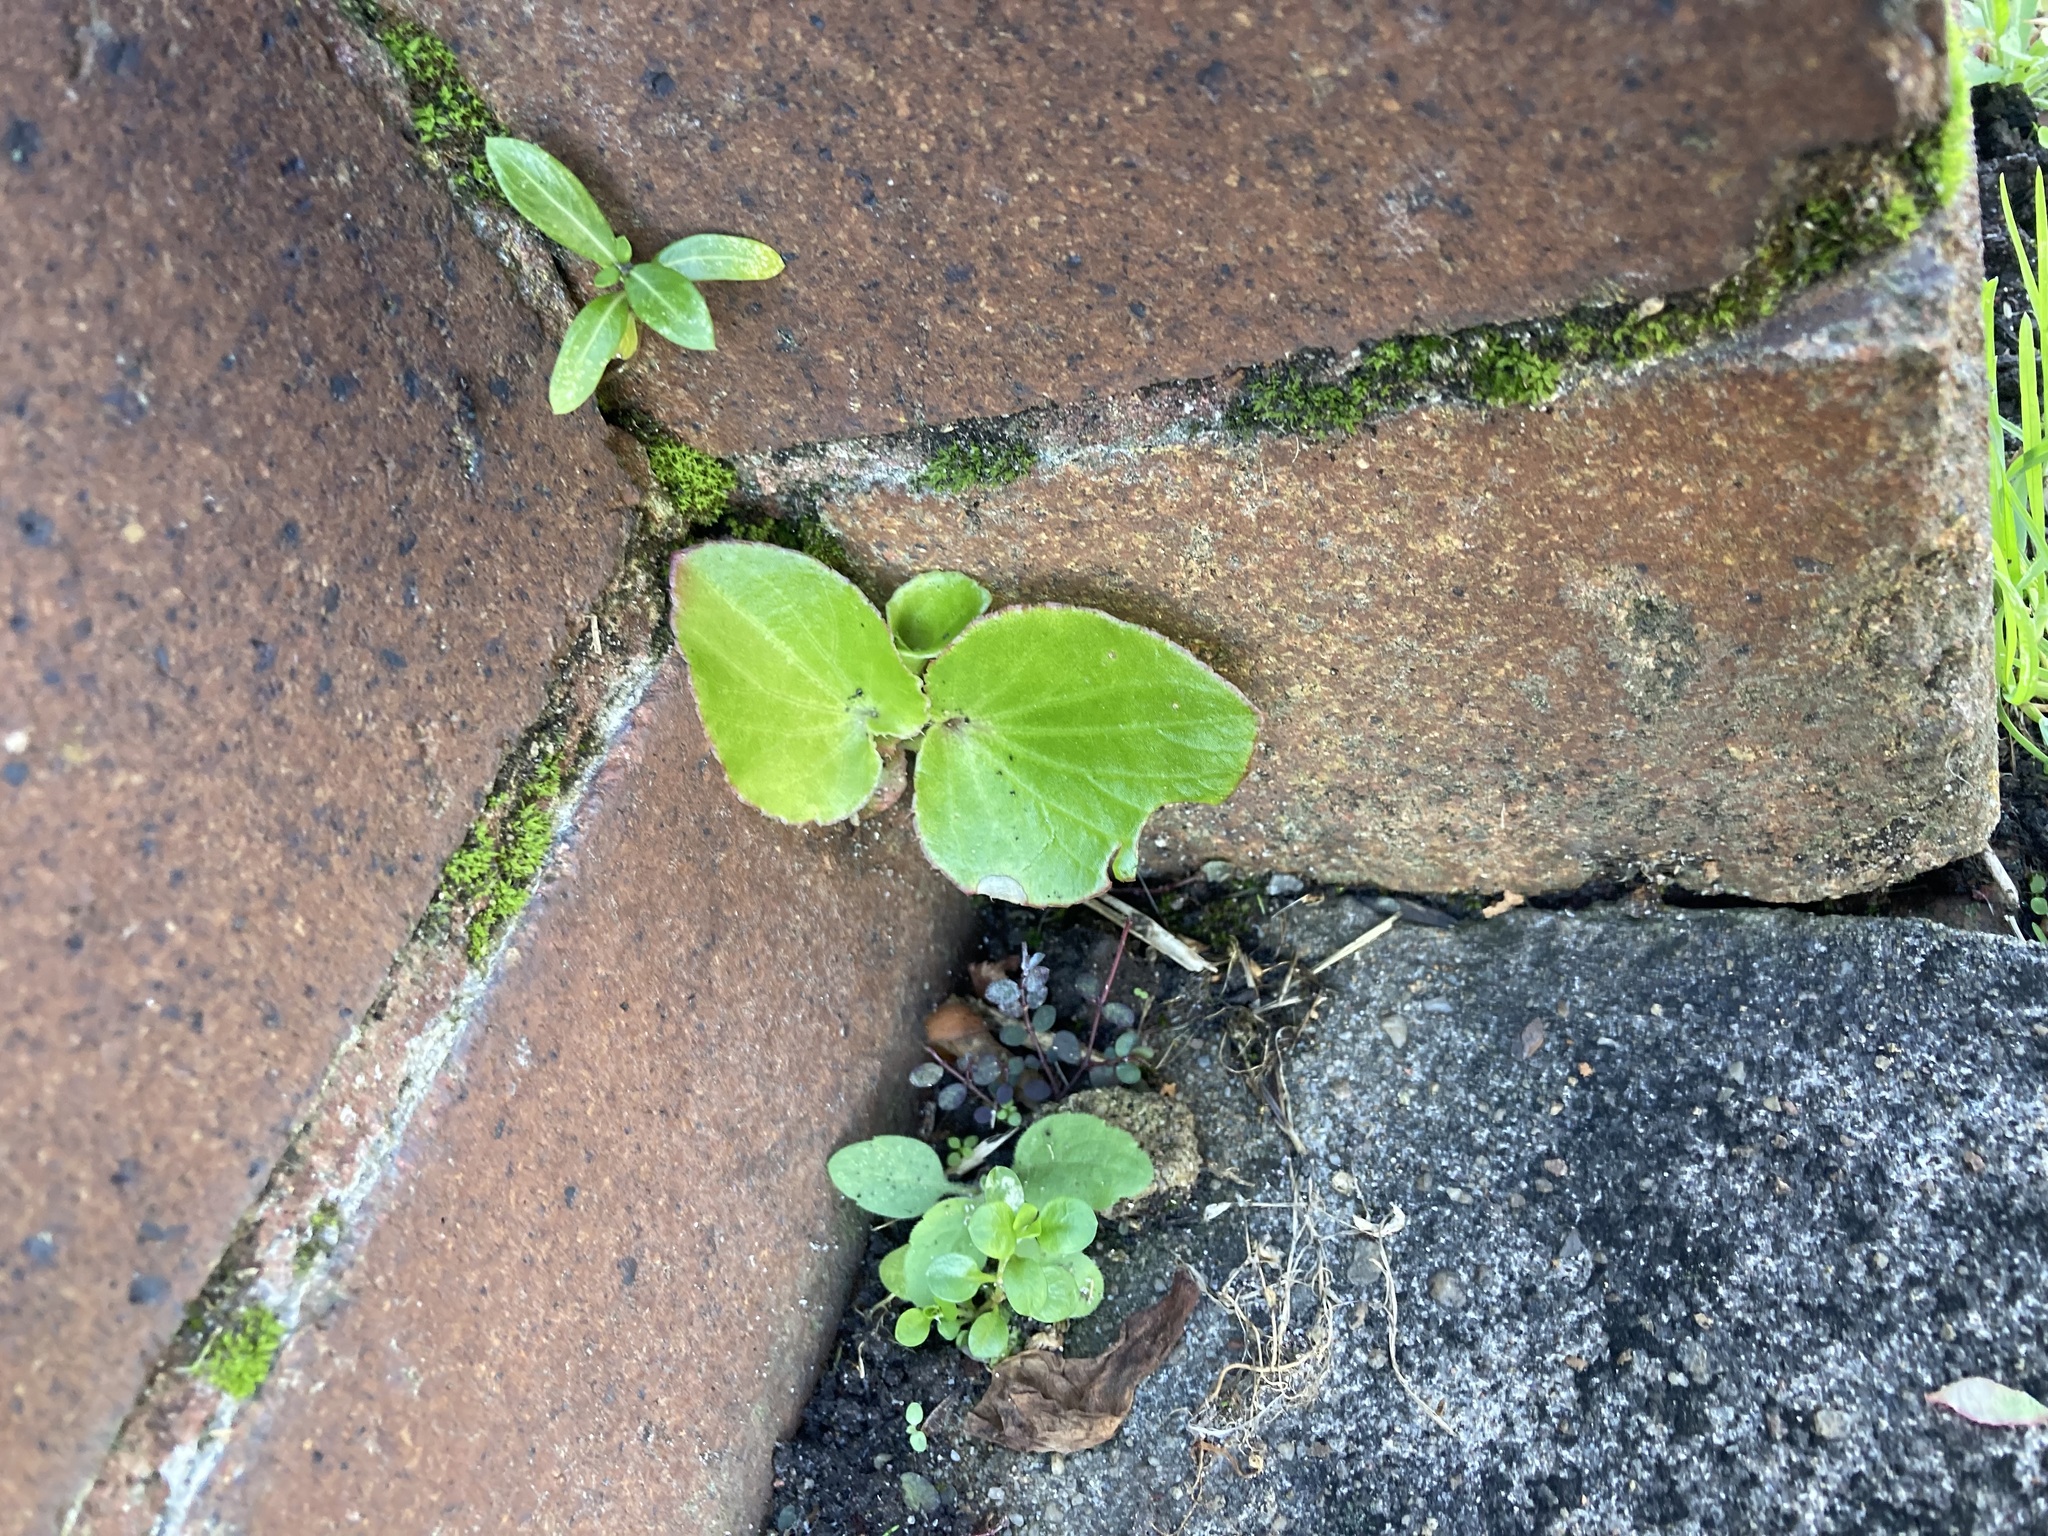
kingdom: Plantae
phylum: Tracheophyta
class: Magnoliopsida
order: Cucurbitales
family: Begoniaceae
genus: Begonia
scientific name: Begonia cucullata
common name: Clubbed begonia
